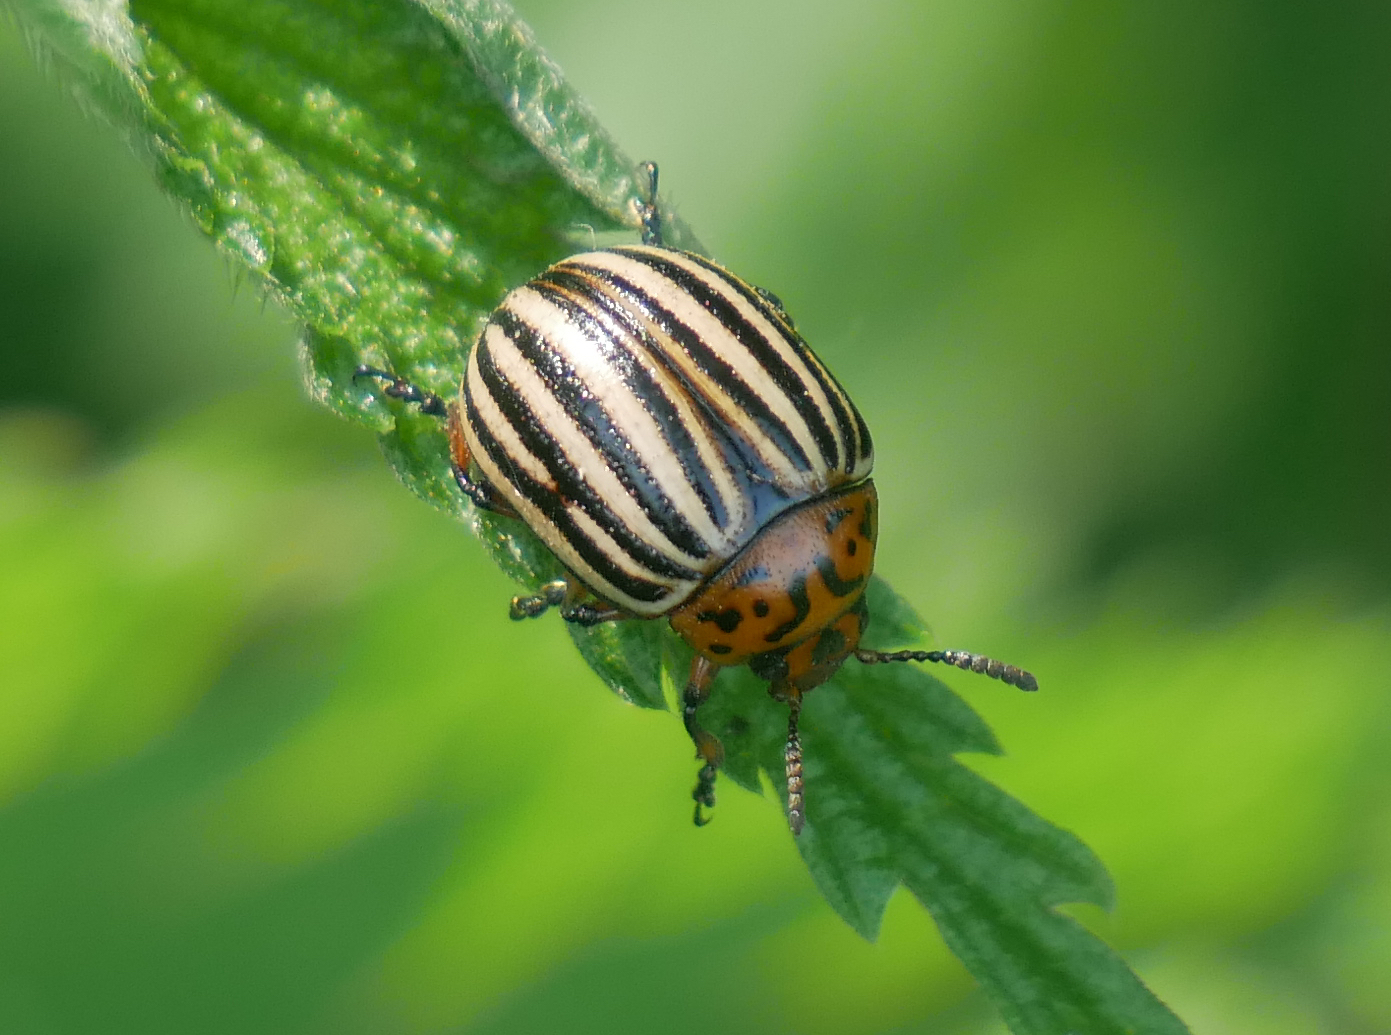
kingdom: Animalia
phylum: Arthropoda
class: Insecta
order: Coleoptera
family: Chrysomelidae
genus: Leptinotarsa
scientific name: Leptinotarsa decemlineata
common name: Colorado potato beetle
